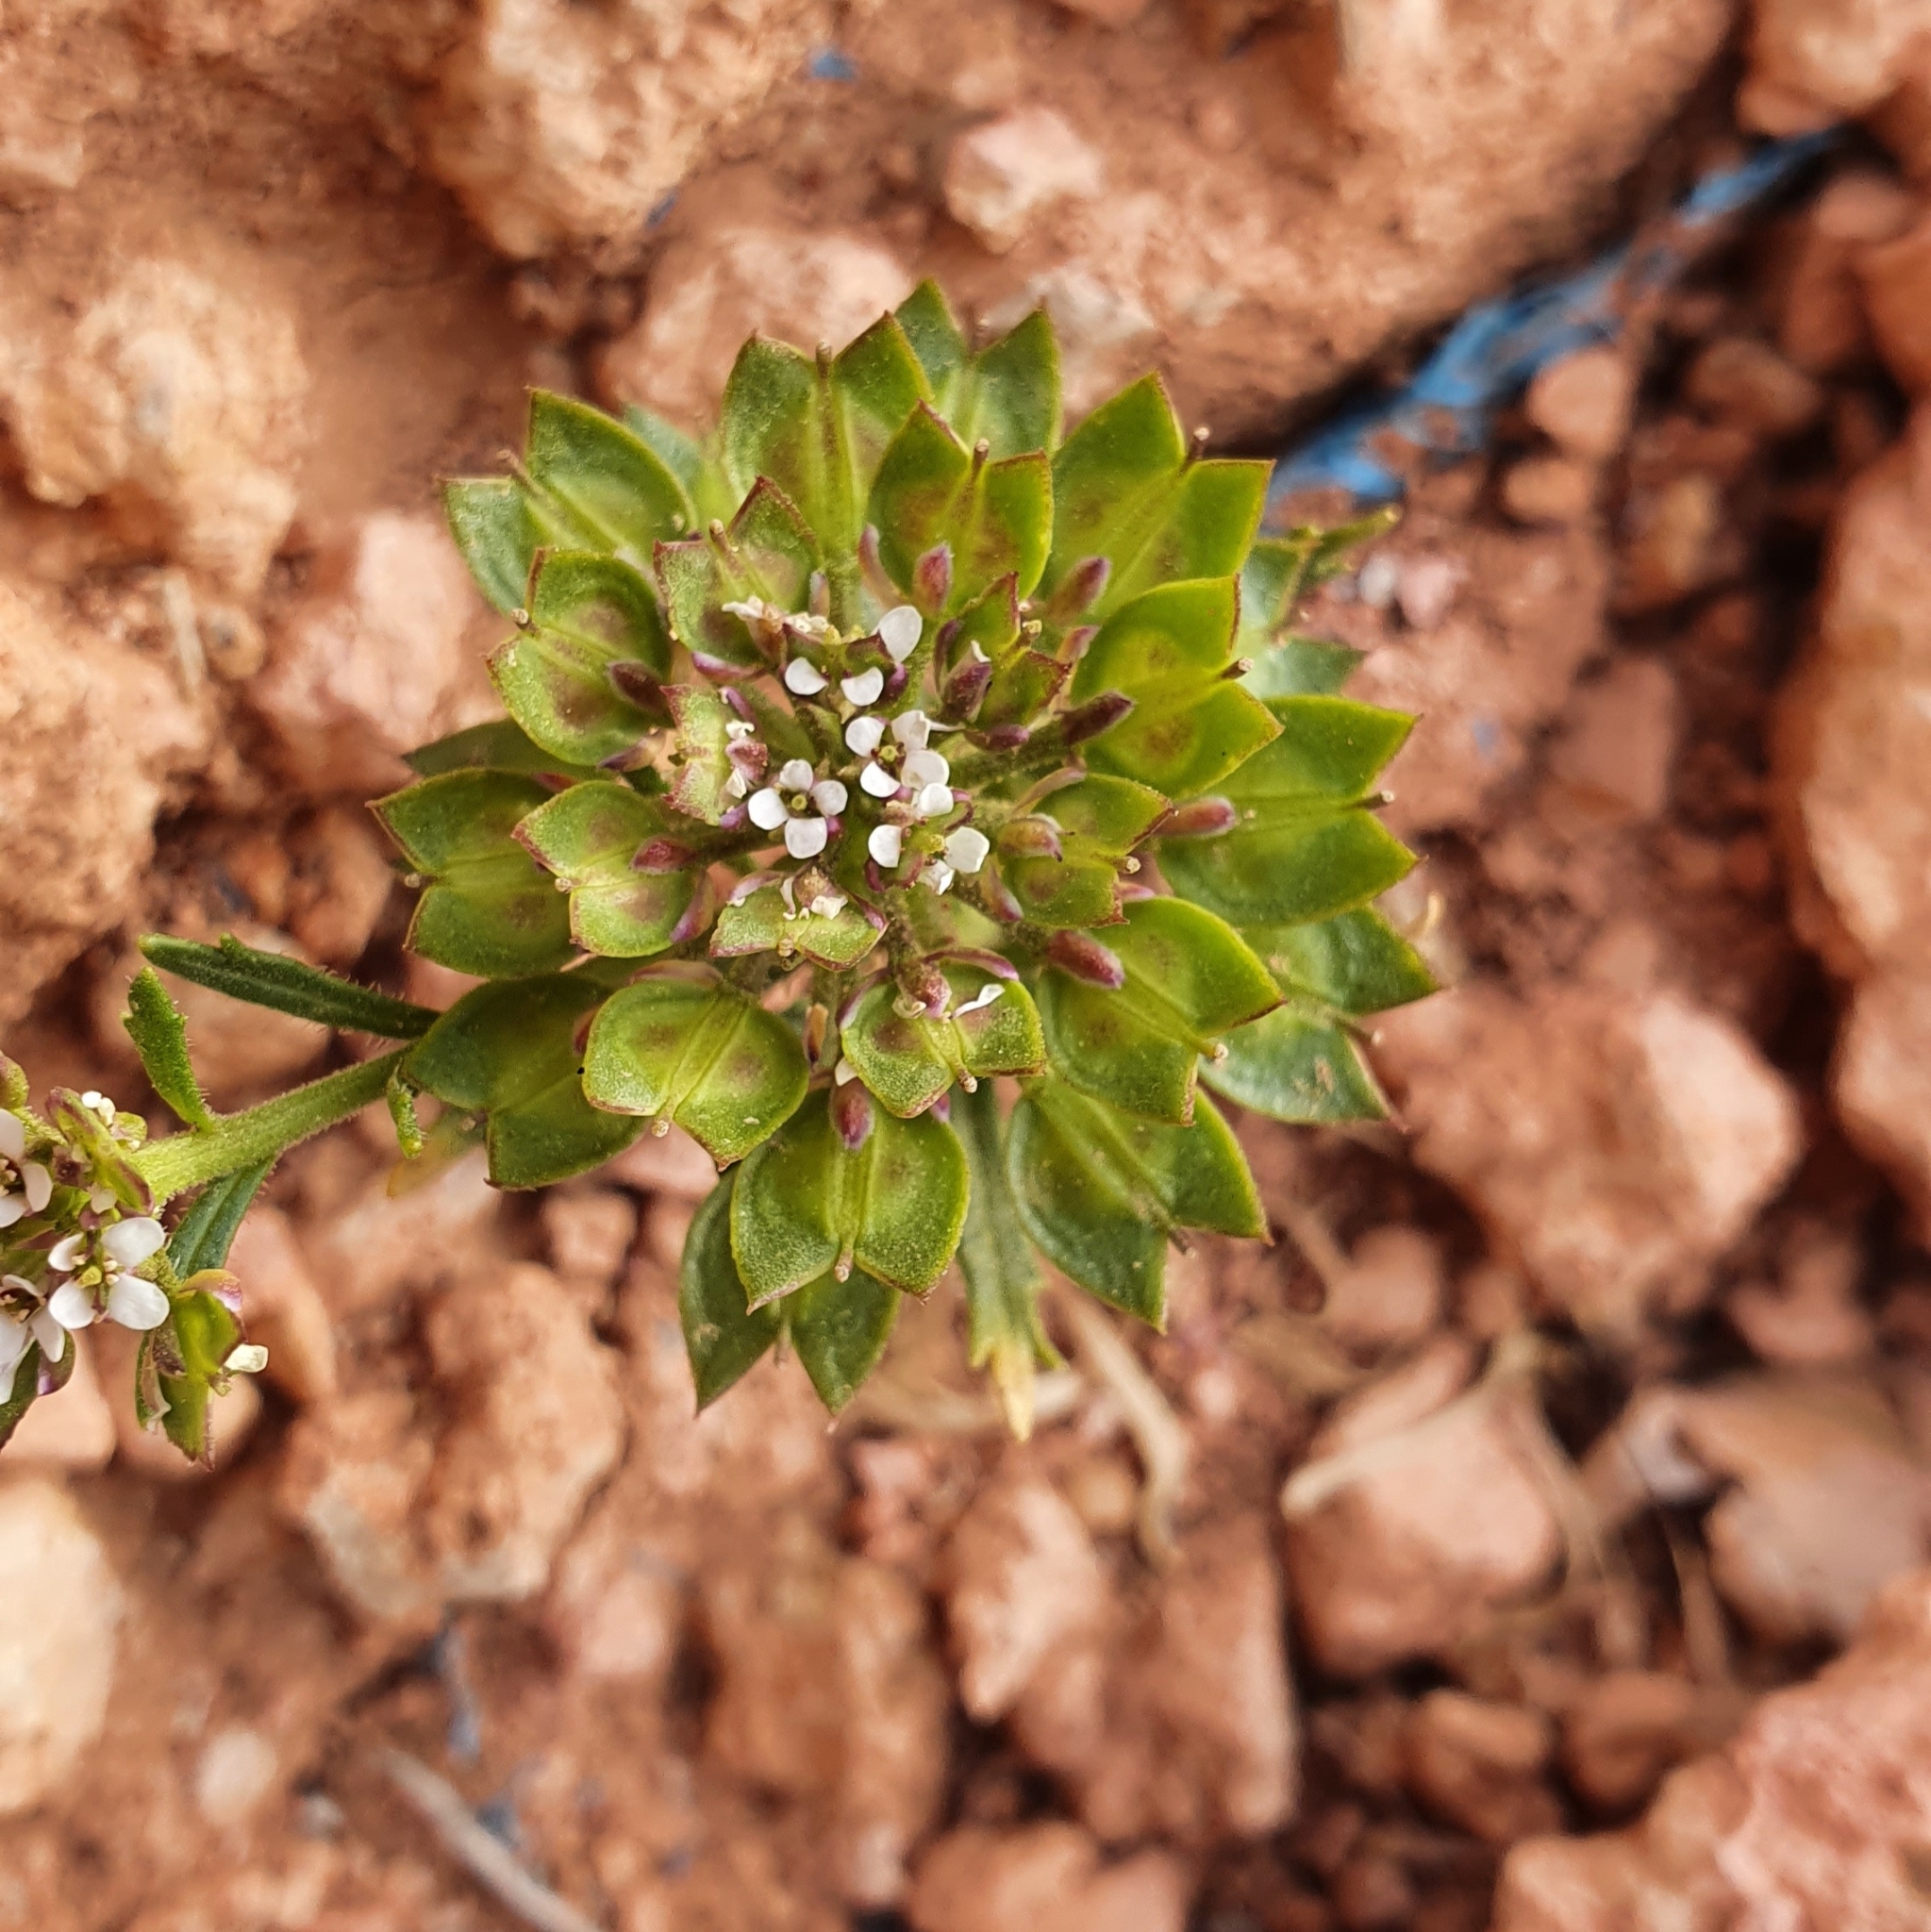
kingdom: Plantae
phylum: Tracheophyta
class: Magnoliopsida
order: Brassicales
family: Brassicaceae
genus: Iberis
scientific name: Iberis odorata
